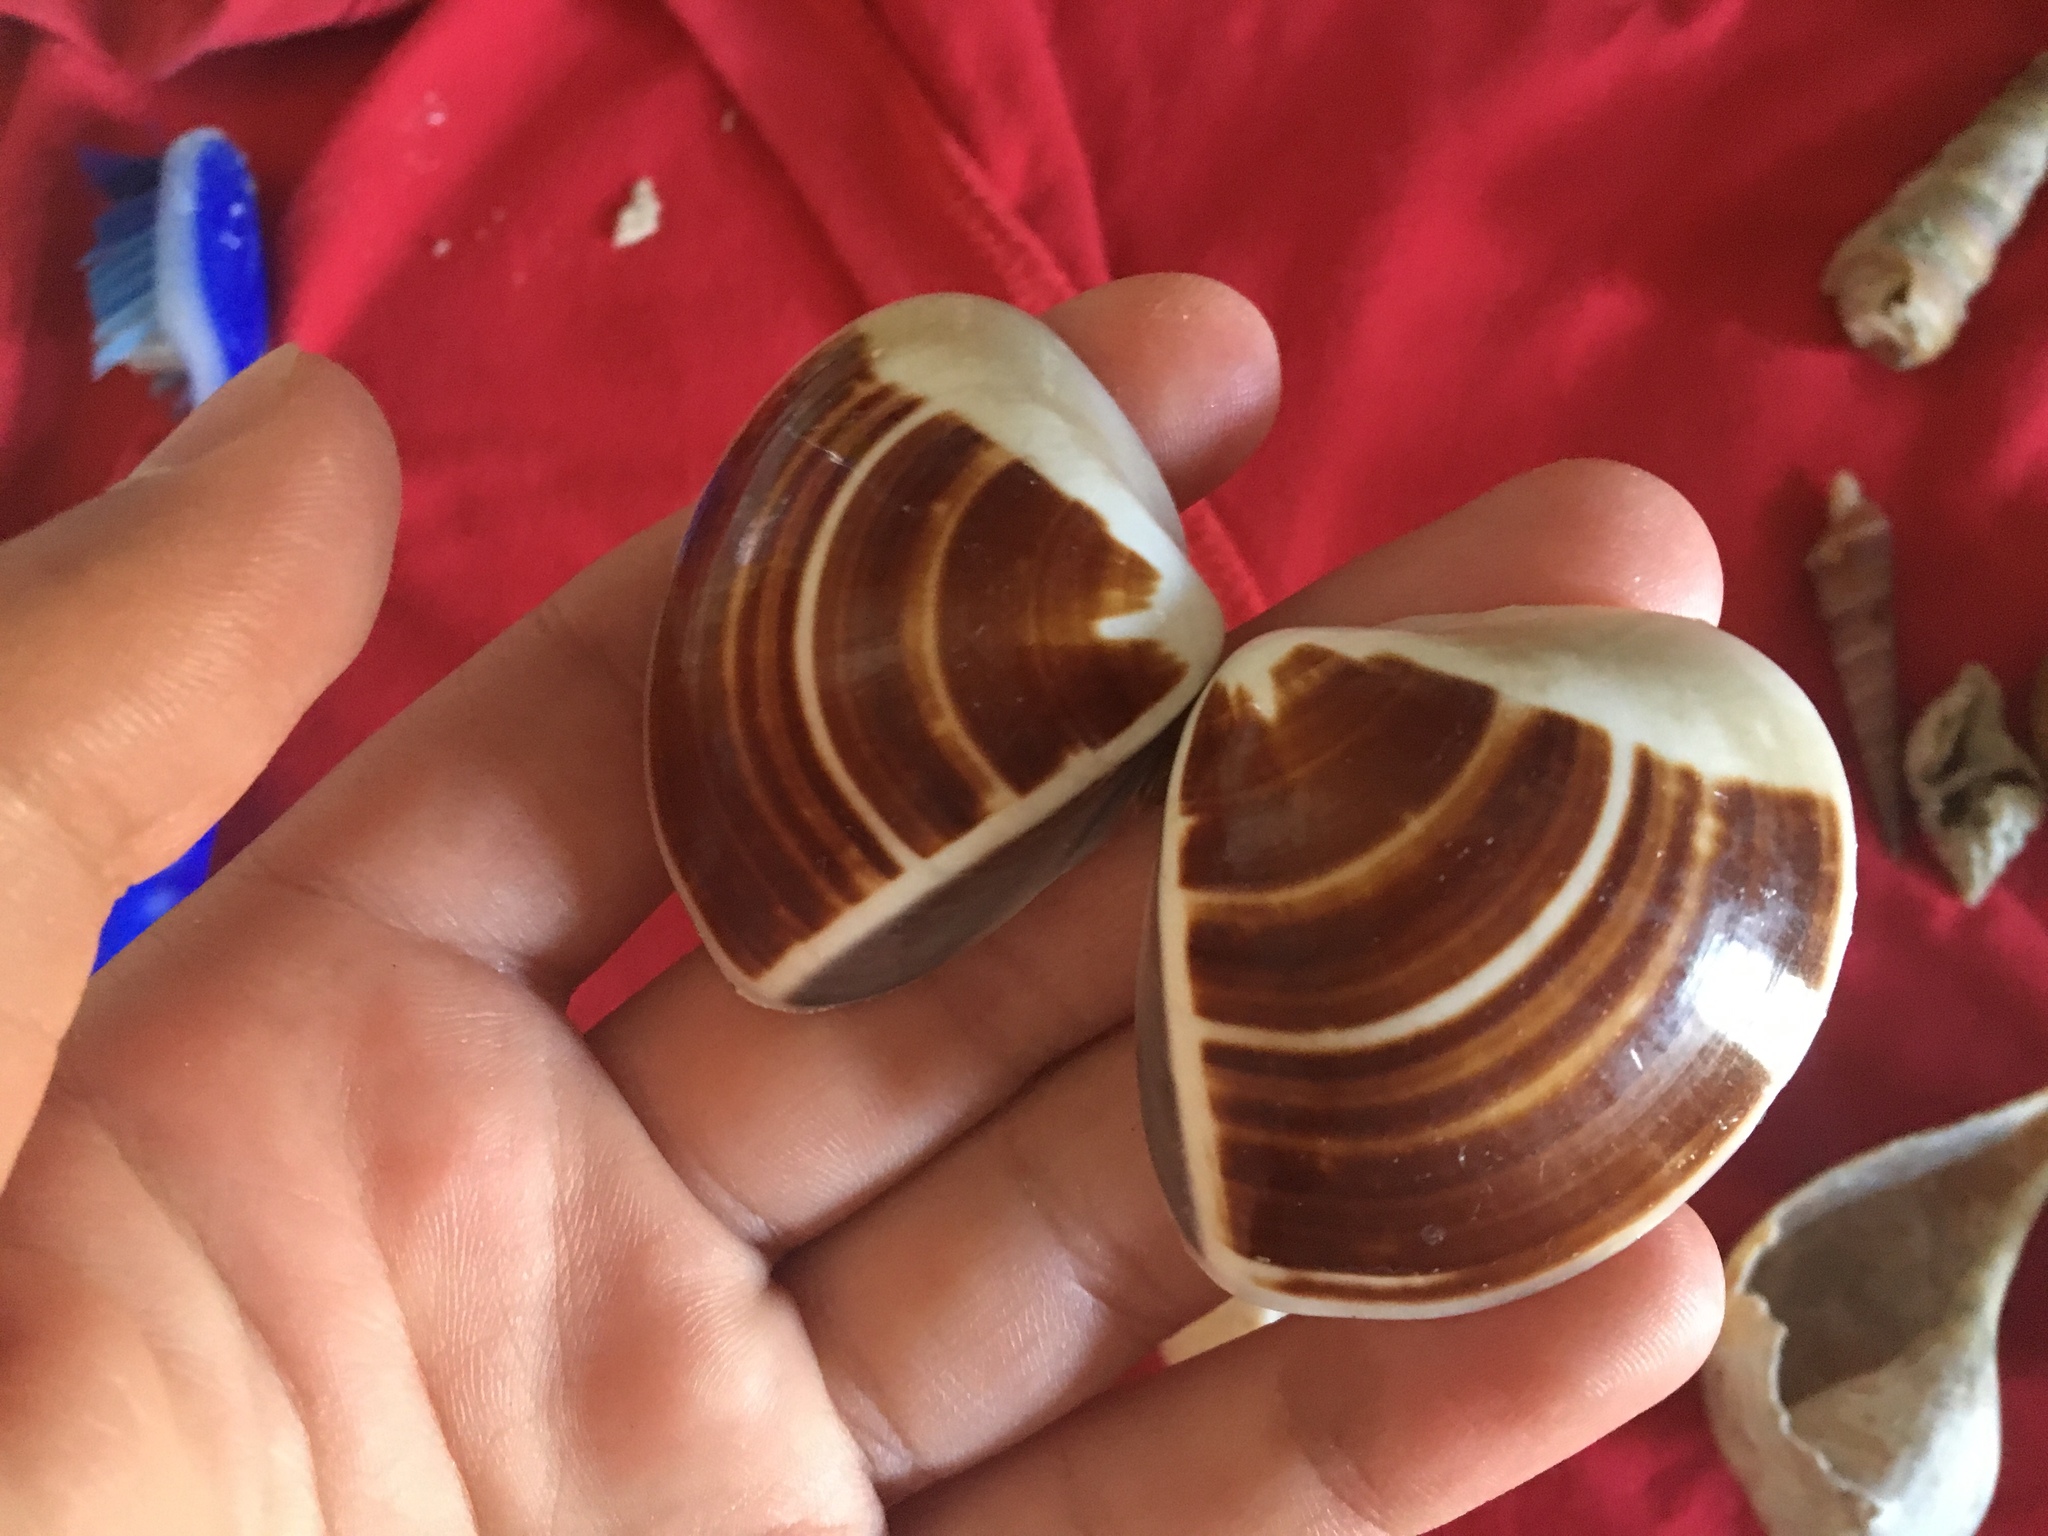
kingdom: Animalia
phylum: Mollusca
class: Bivalvia
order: Venerida
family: Veneridae
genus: Meretrix
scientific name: Meretrix meretrix
